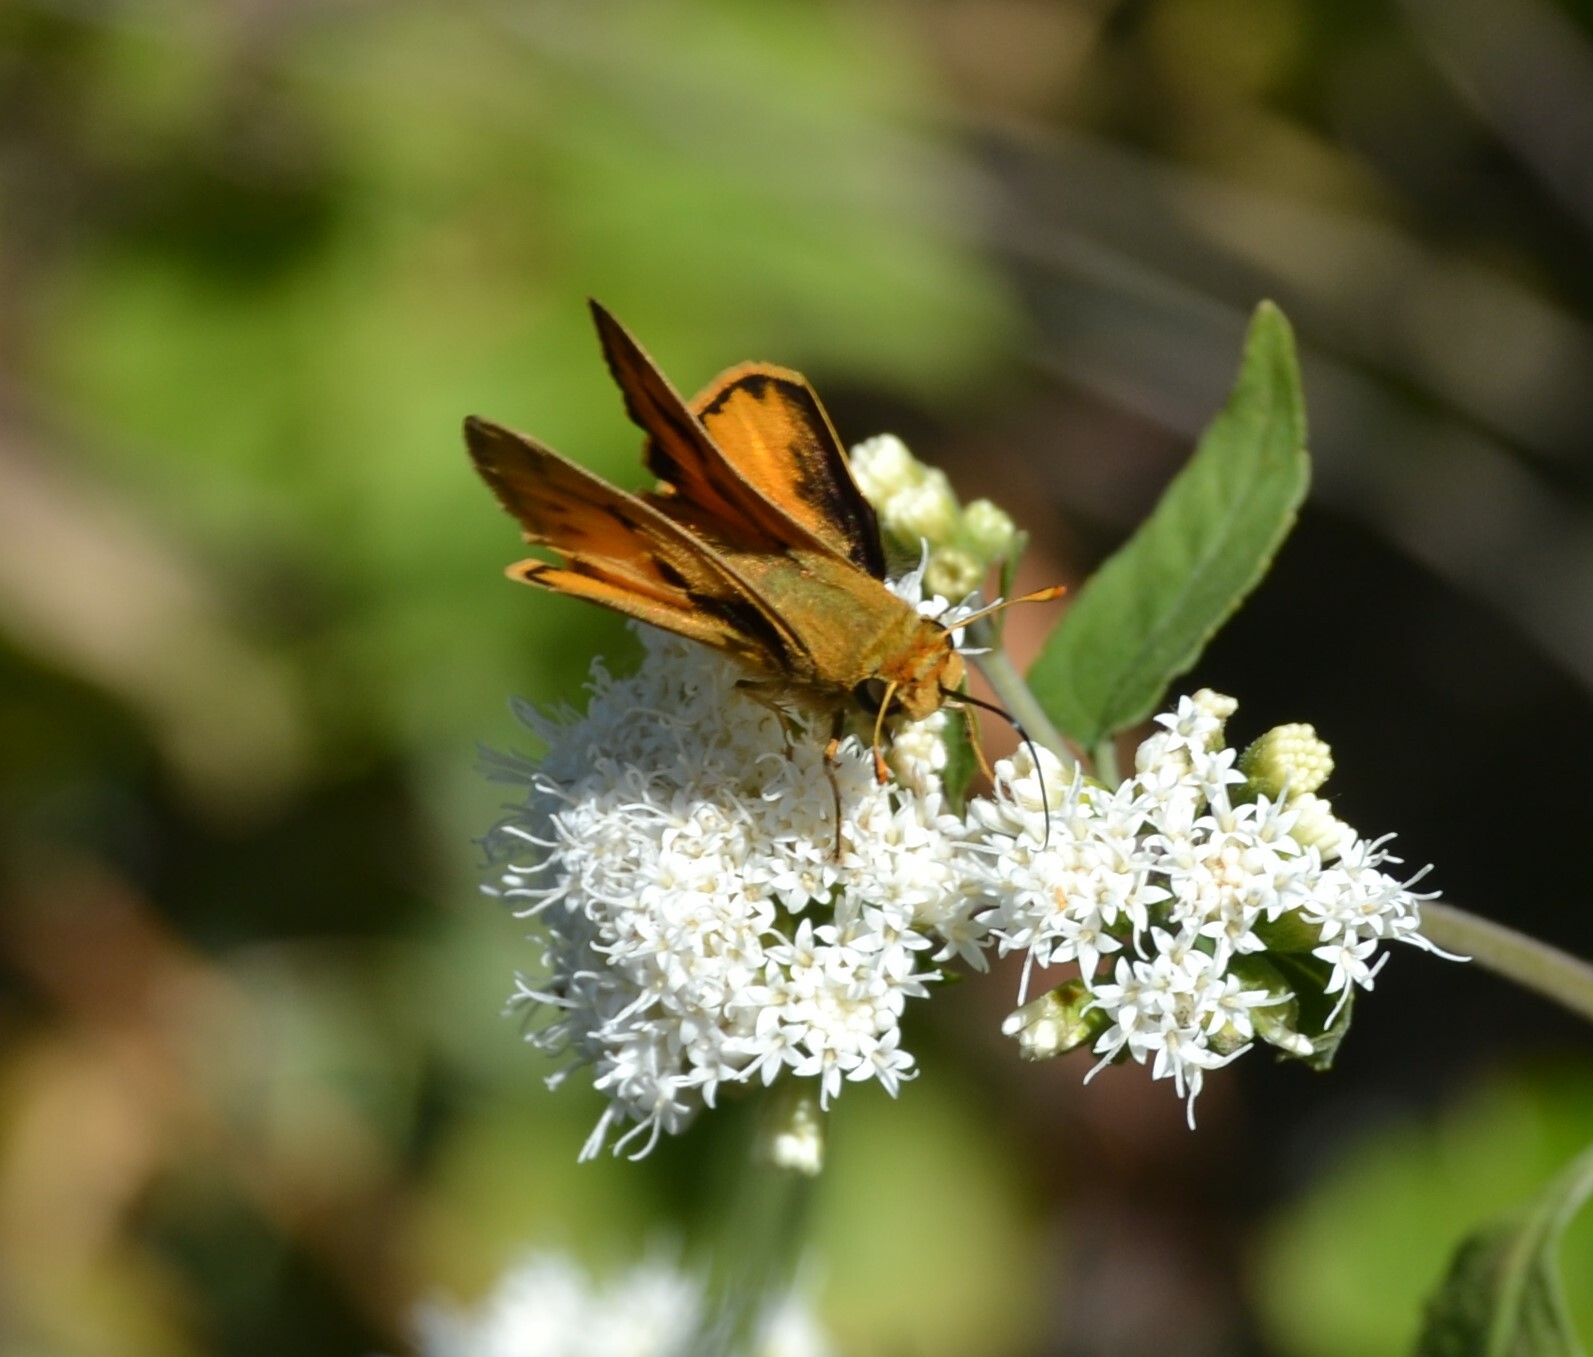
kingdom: Animalia
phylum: Arthropoda
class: Insecta
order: Lepidoptera
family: Hesperiidae
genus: Hylephila
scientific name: Hylephila phyleus
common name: Fiery skipper
